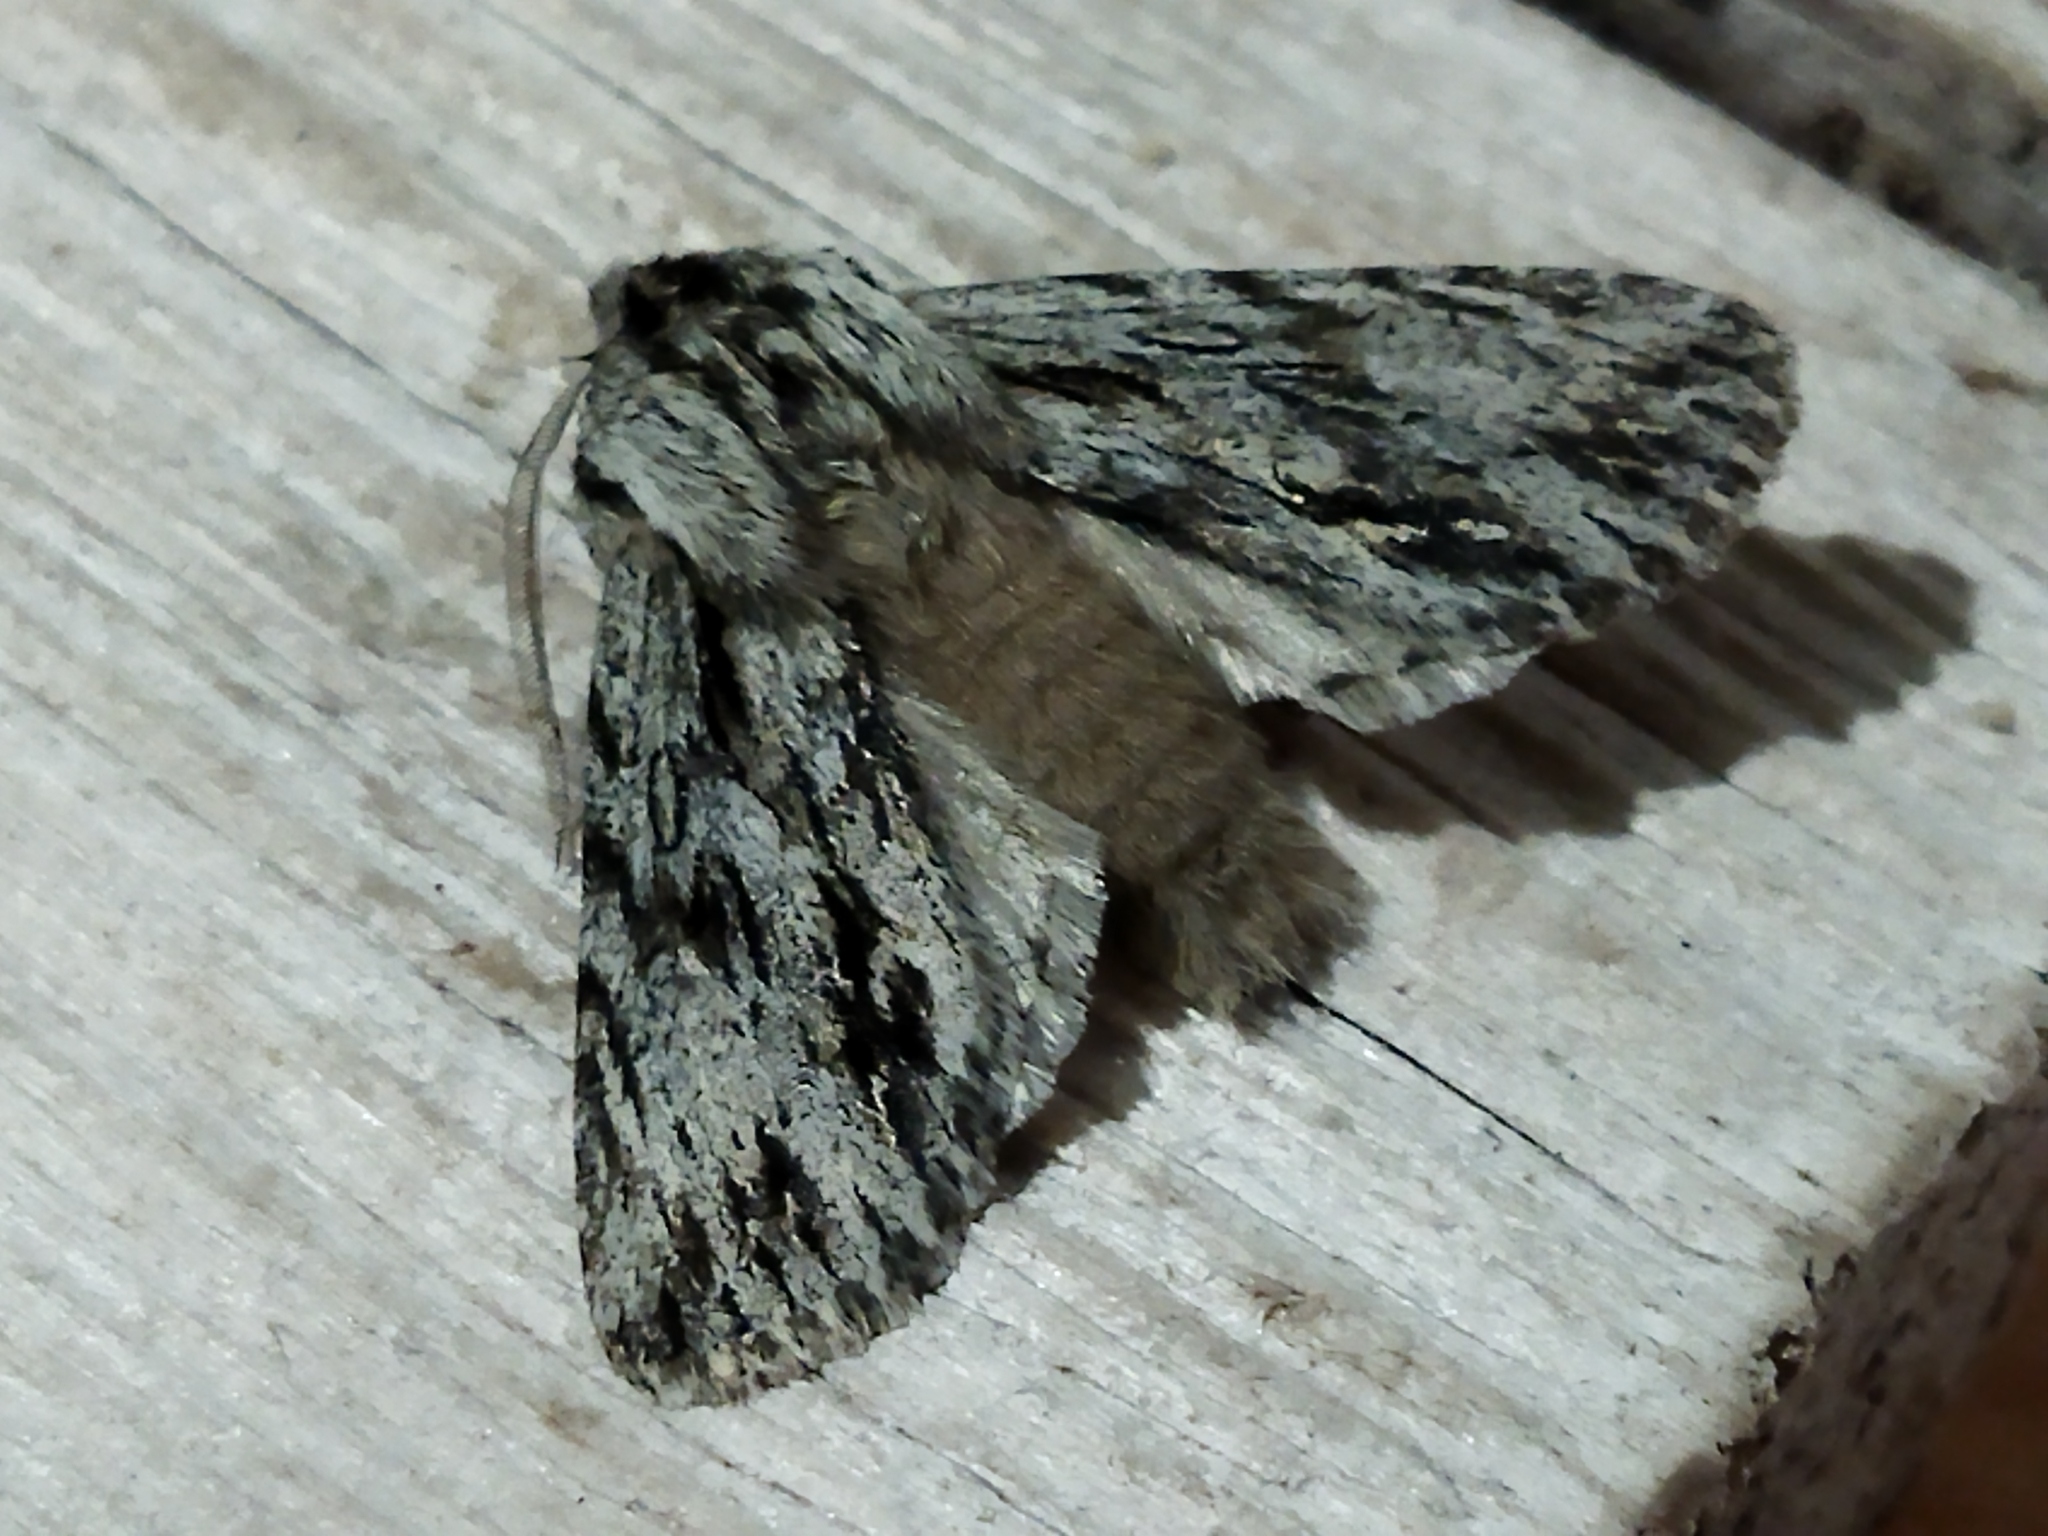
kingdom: Animalia
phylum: Arthropoda
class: Insecta
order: Lepidoptera
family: Noctuidae
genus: Asteroscopus
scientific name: Asteroscopus sphinx
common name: The sprawler
